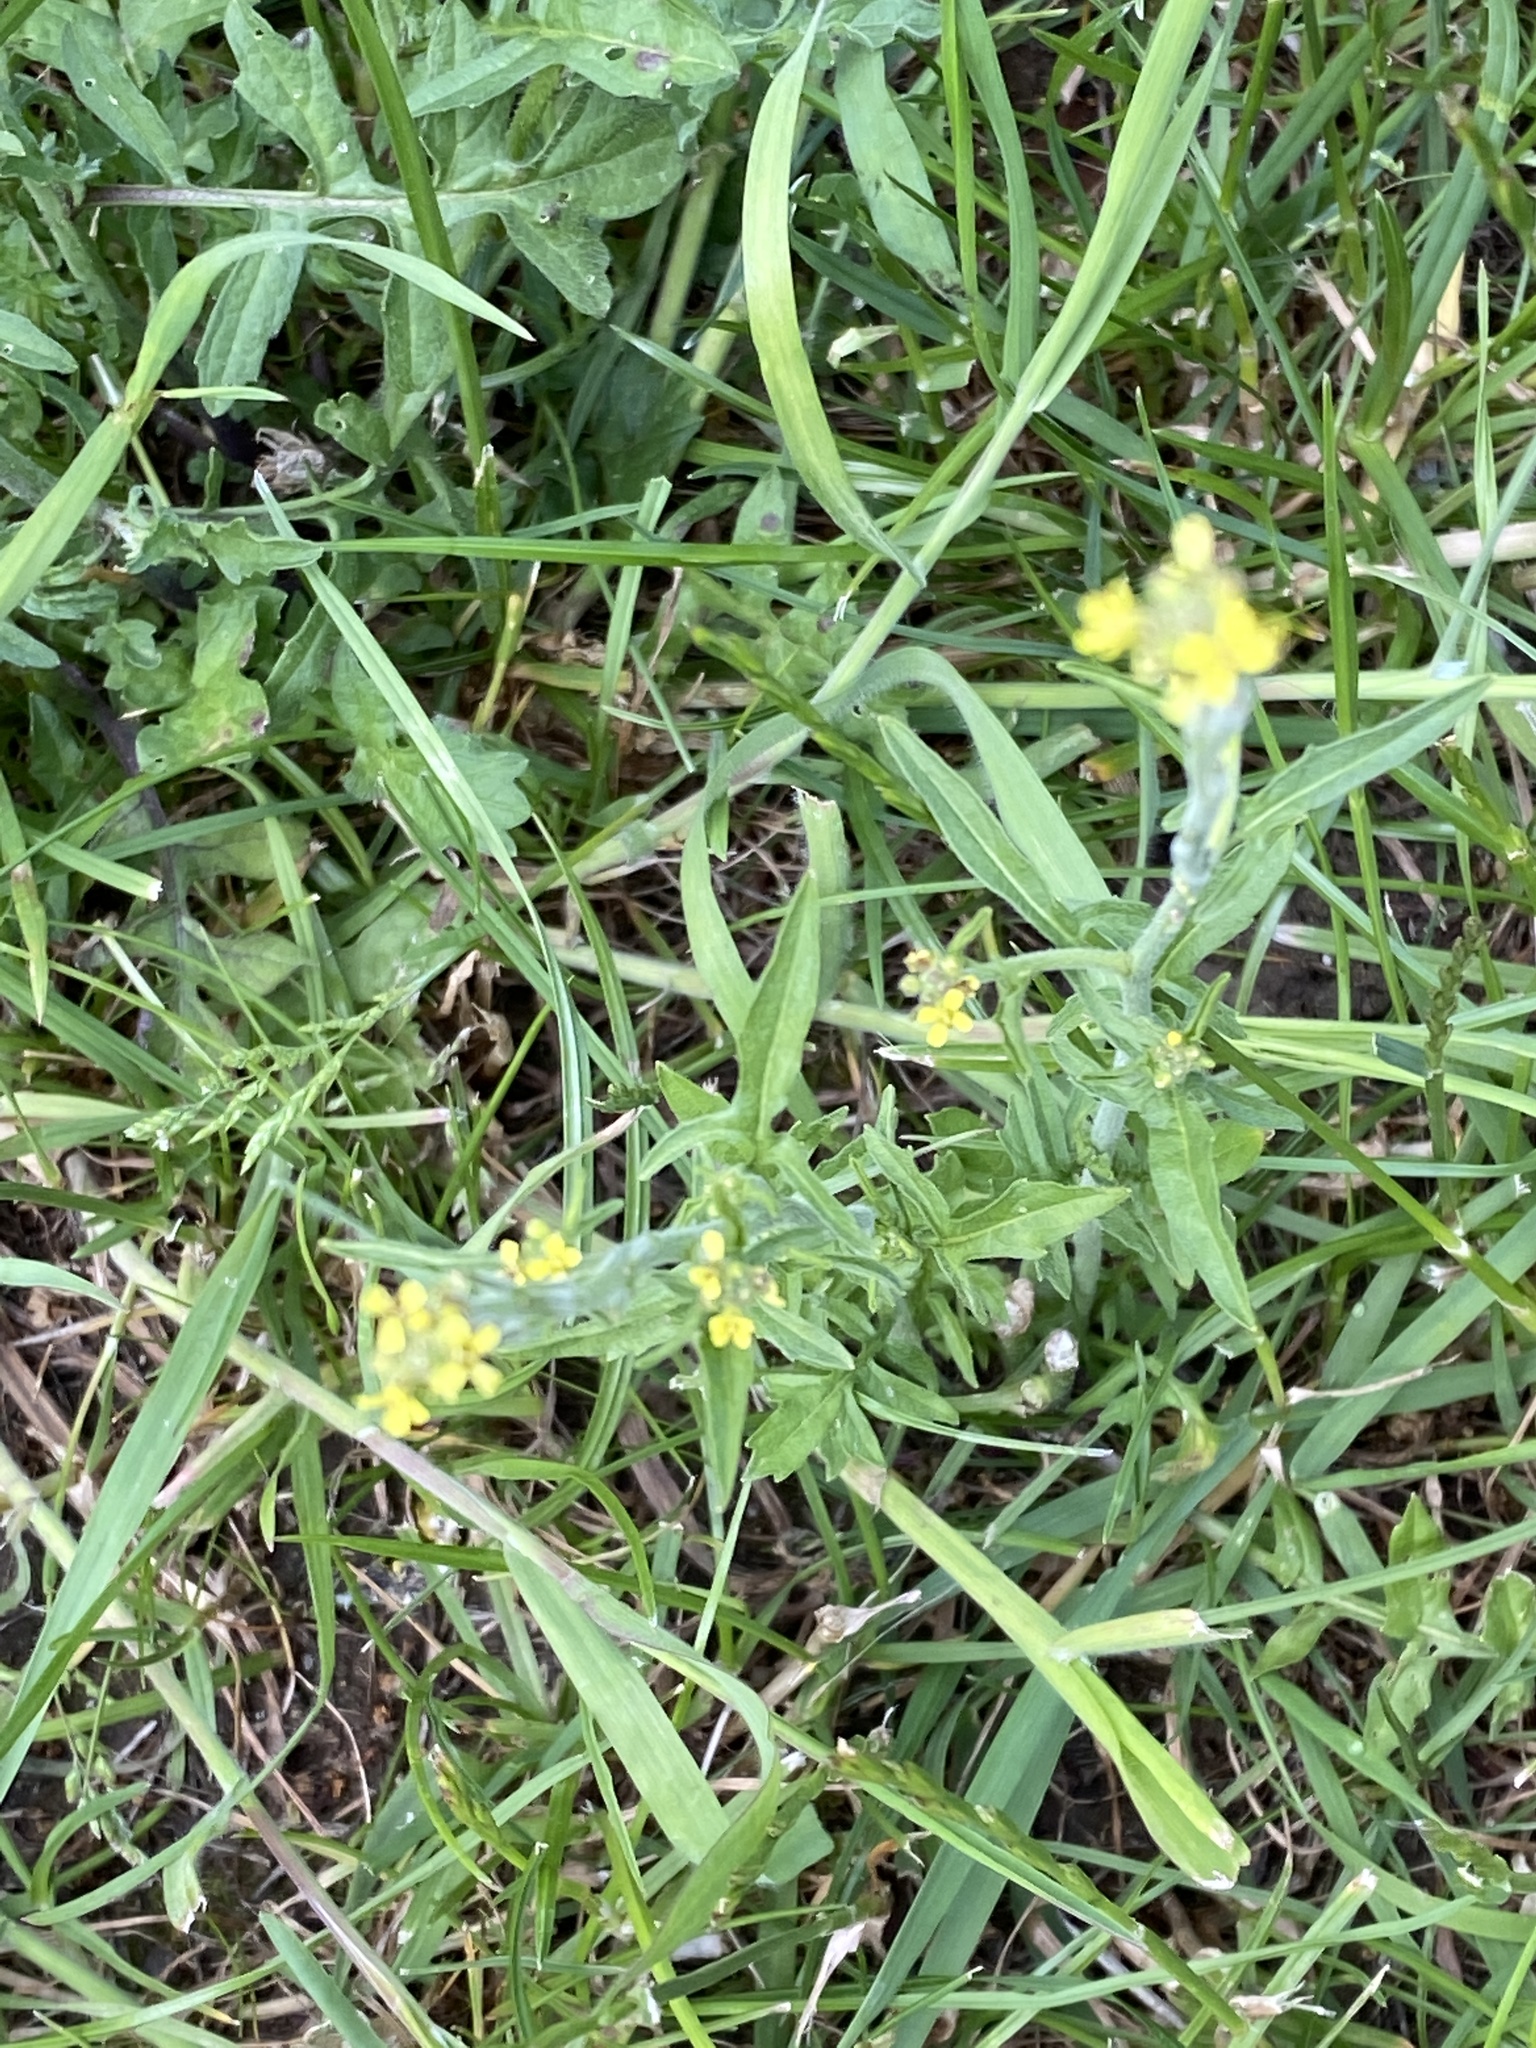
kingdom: Plantae
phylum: Tracheophyta
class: Magnoliopsida
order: Brassicales
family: Brassicaceae
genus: Sisymbrium
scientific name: Sisymbrium officinale
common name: Hedge mustard
